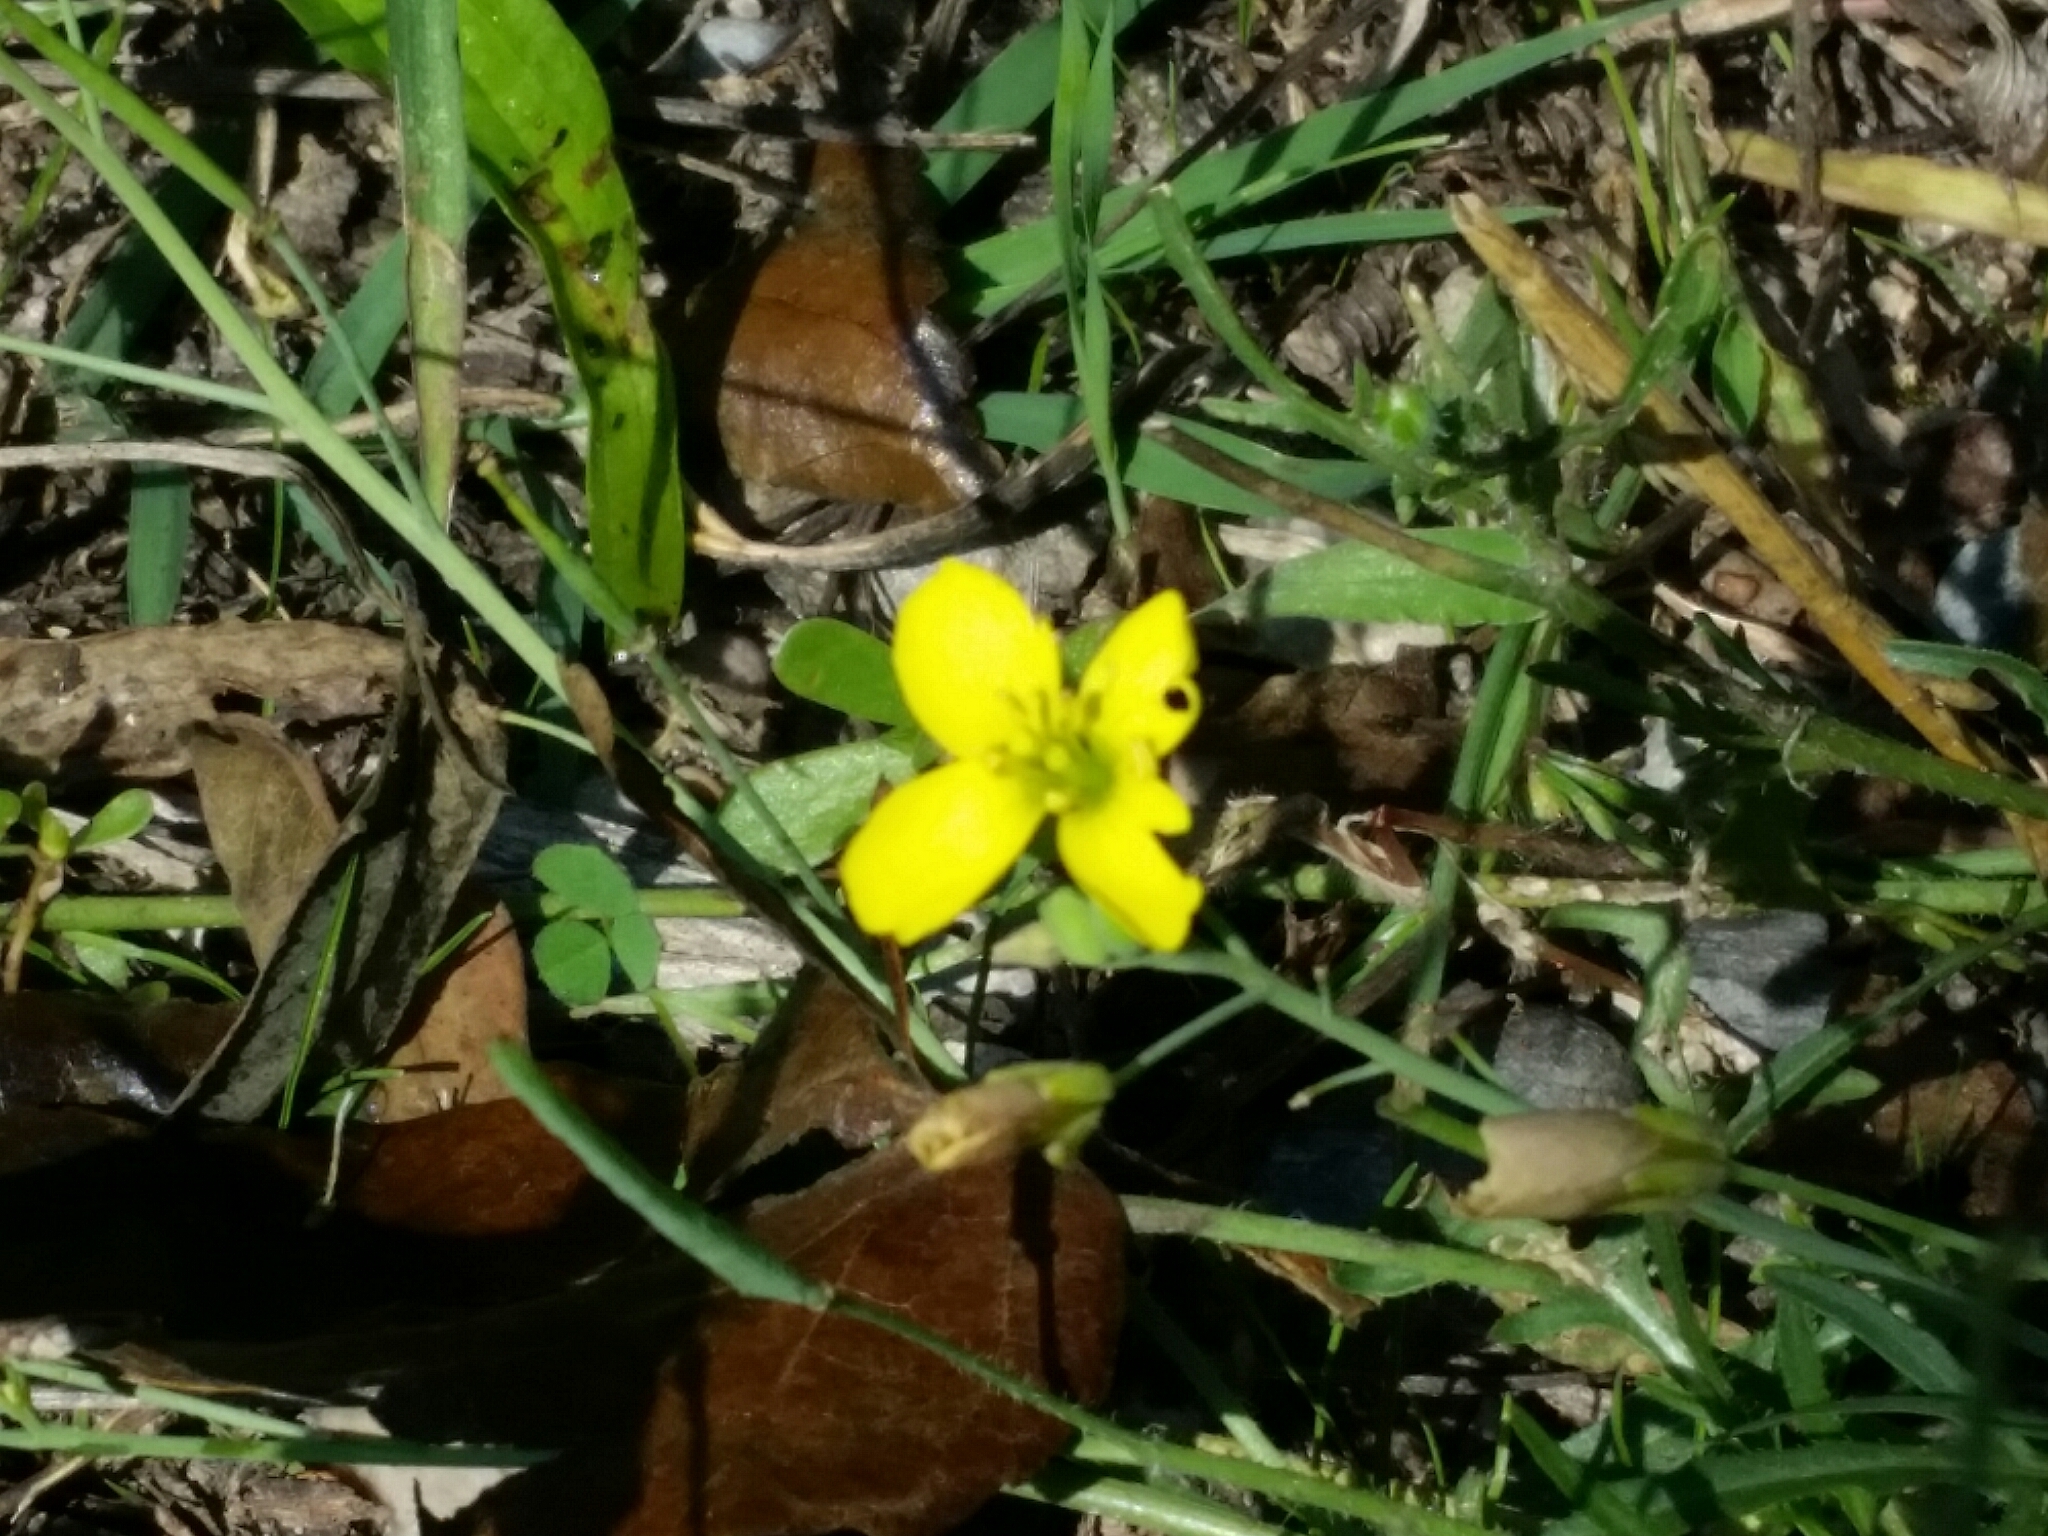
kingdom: Plantae
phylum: Tracheophyta
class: Magnoliopsida
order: Brassicales
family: Brassicaceae
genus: Diplotaxis
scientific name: Diplotaxis tenuifolia
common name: Perennial wall-rocket
